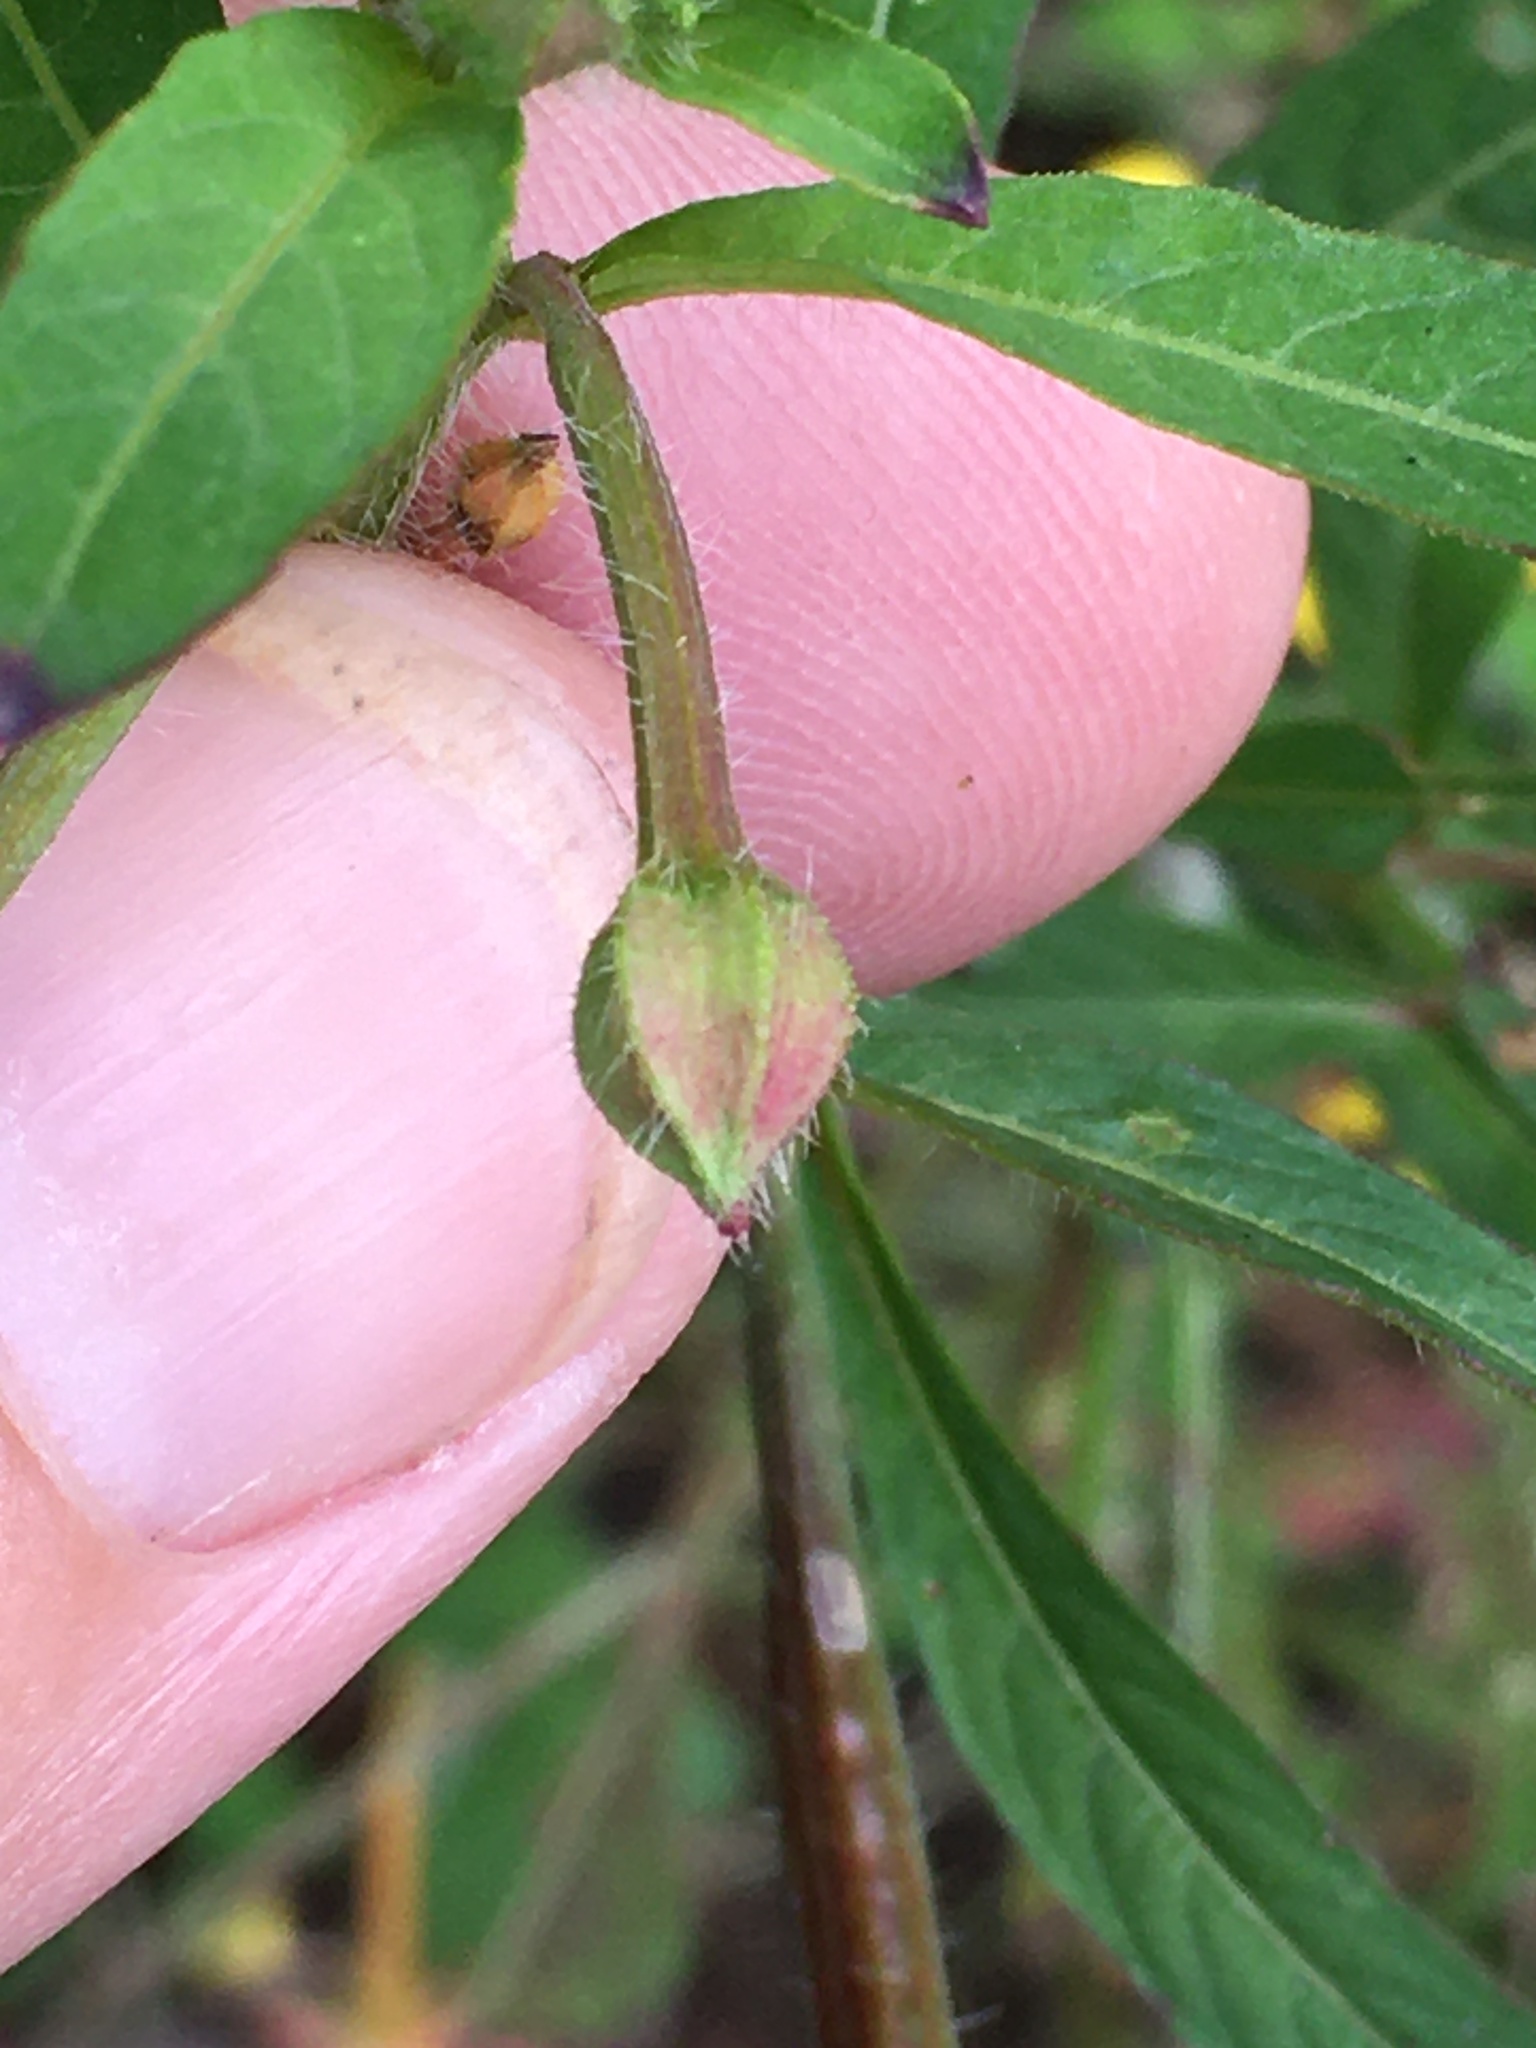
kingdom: Plantae
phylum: Tracheophyta
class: Magnoliopsida
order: Myrtales
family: Onagraceae
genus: Ludwigia
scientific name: Ludwigia leptocarpa
